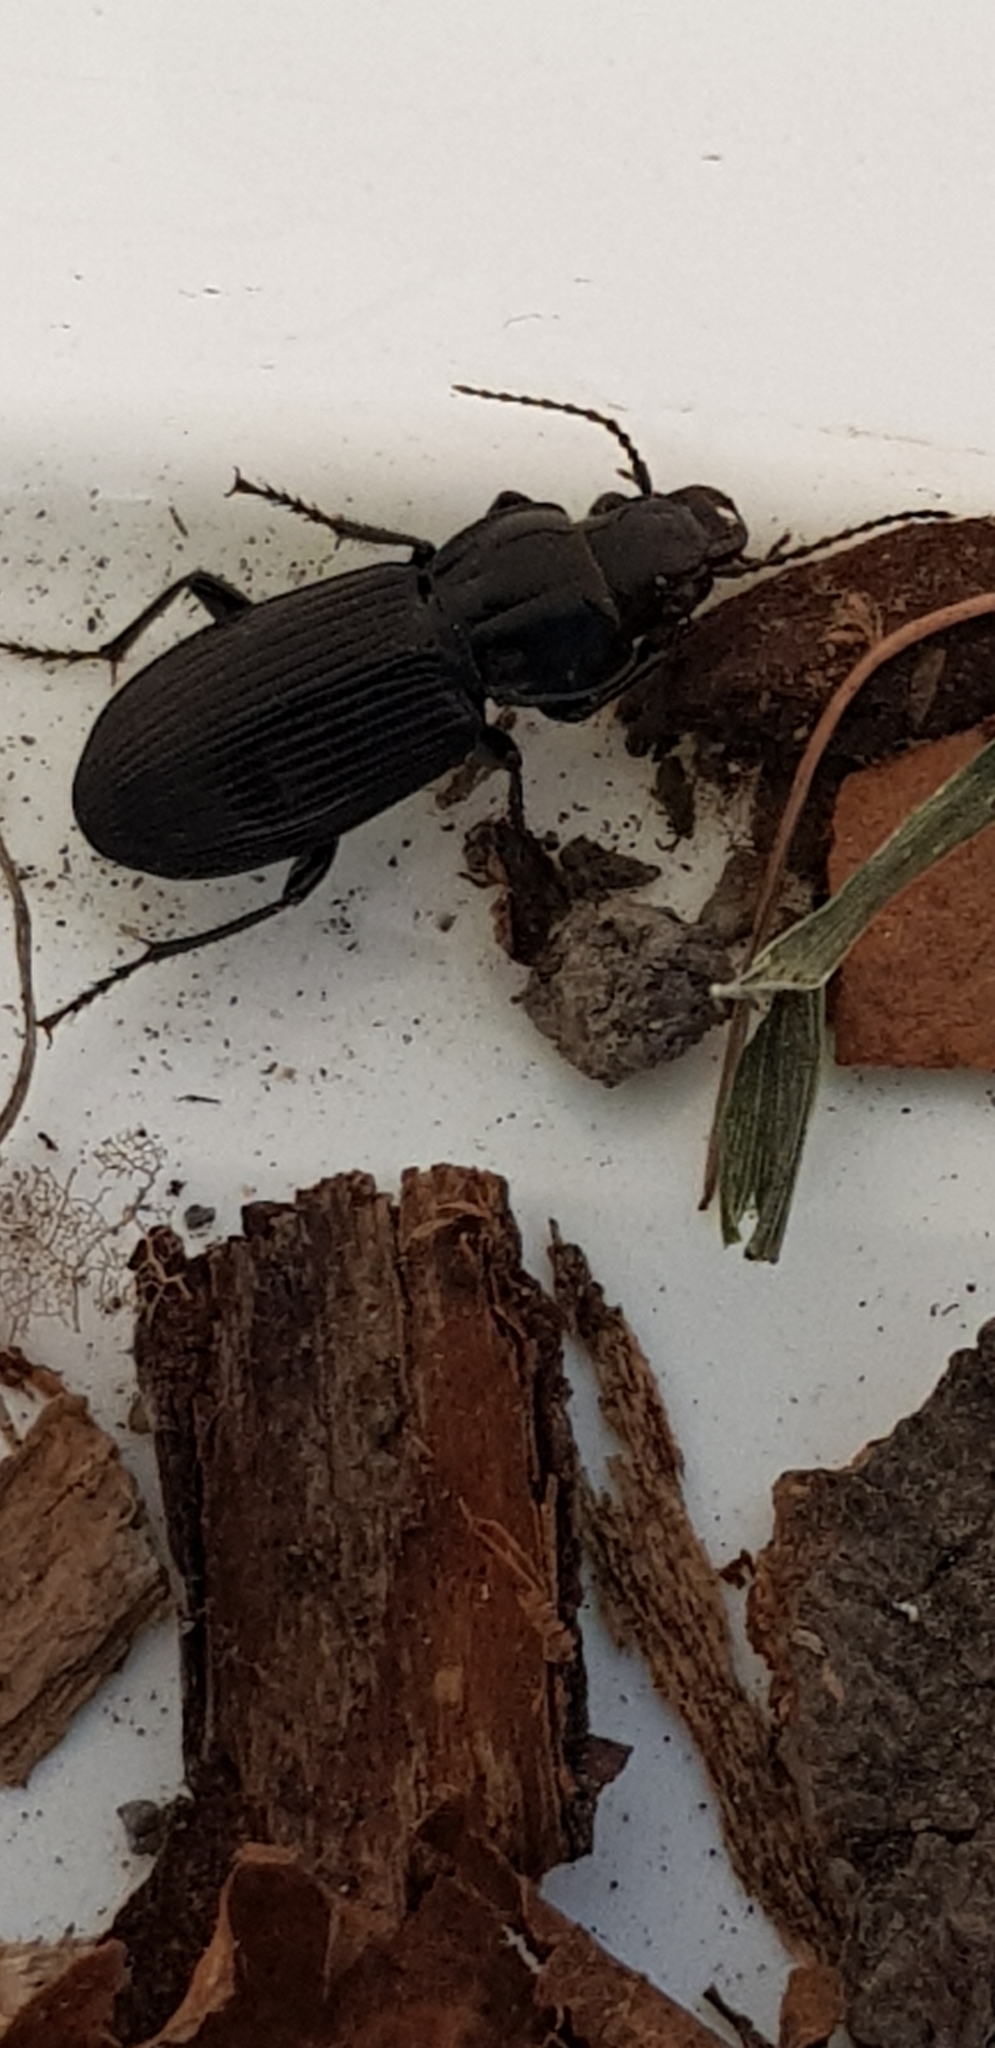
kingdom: Animalia
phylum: Arthropoda
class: Insecta
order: Coleoptera
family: Carabidae
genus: Pterostichus
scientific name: Pterostichus melanarius
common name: European dark harp ground beetle
